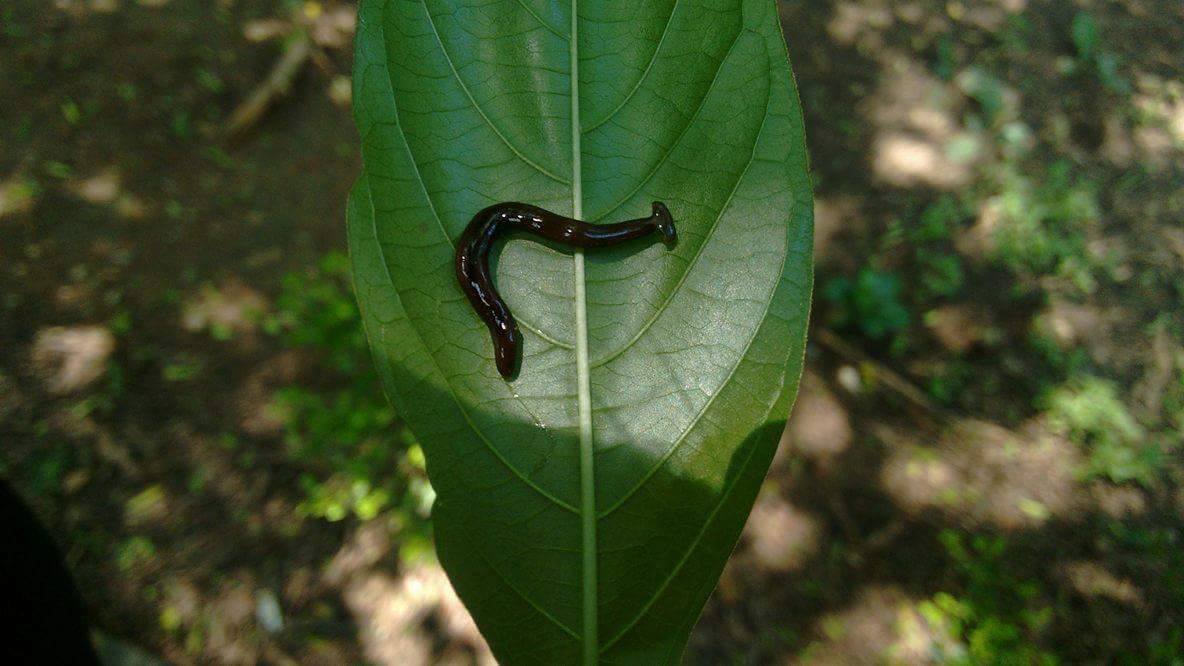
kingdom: Animalia
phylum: Platyhelminthes
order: Tricladida
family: Geoplanidae
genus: Diversibipalium
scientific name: Diversibipalium indicum
